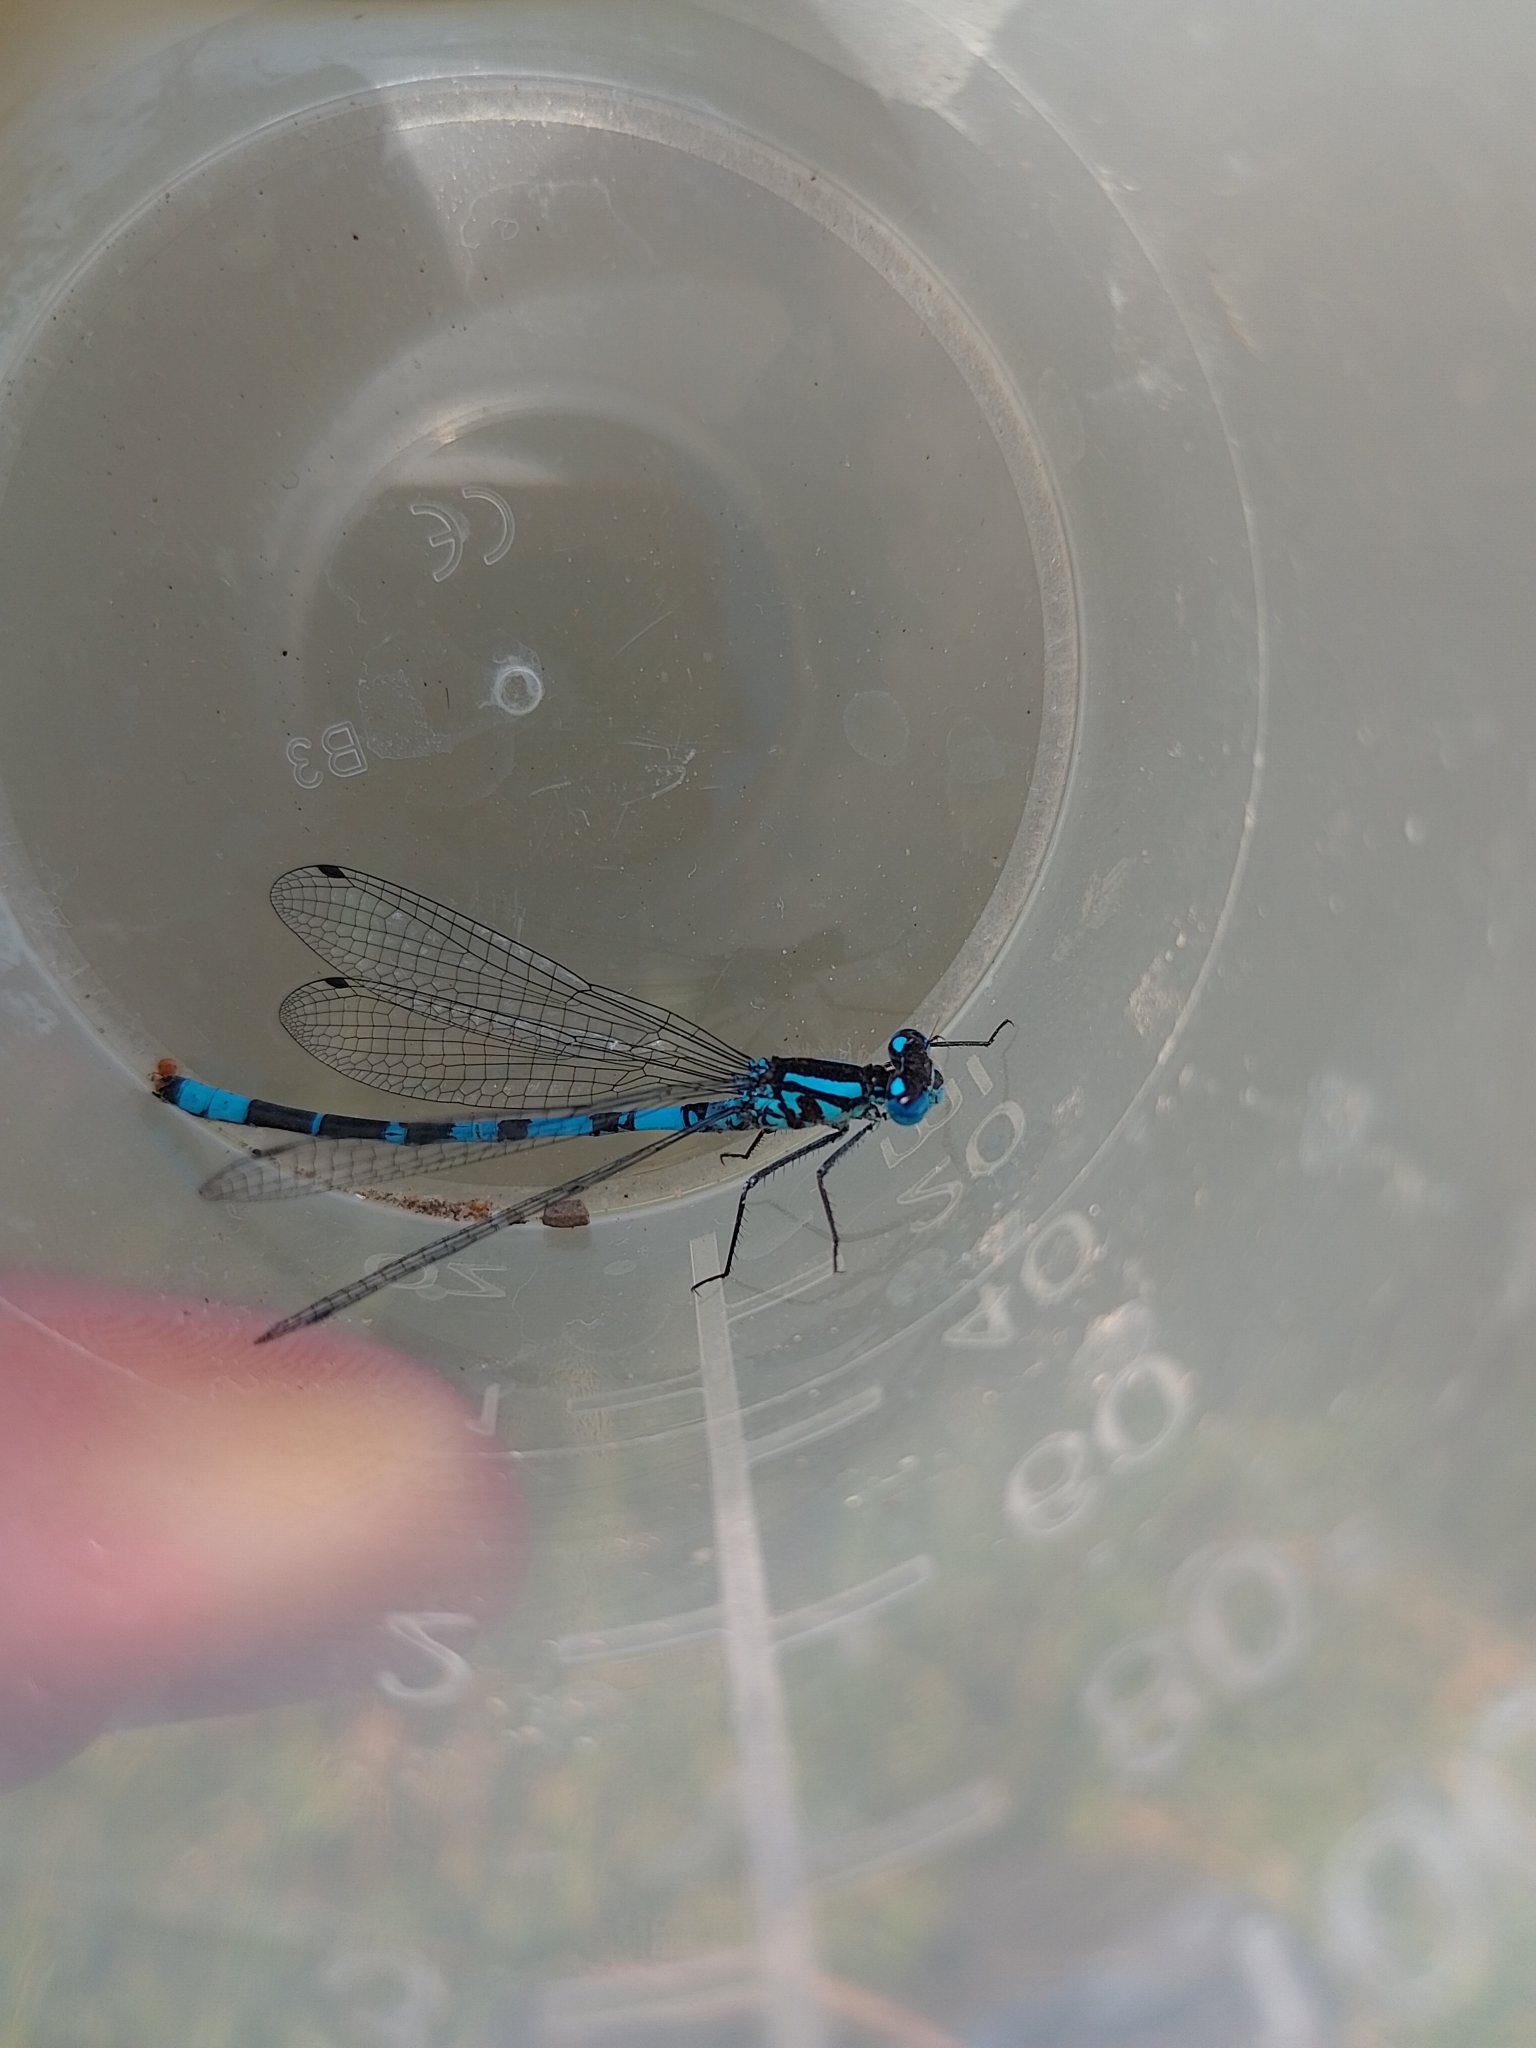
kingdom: Animalia
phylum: Arthropoda
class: Insecta
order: Odonata
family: Coenagrionidae
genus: Enallagma
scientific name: Enallagma cyathigerum
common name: Common blue damselfly
